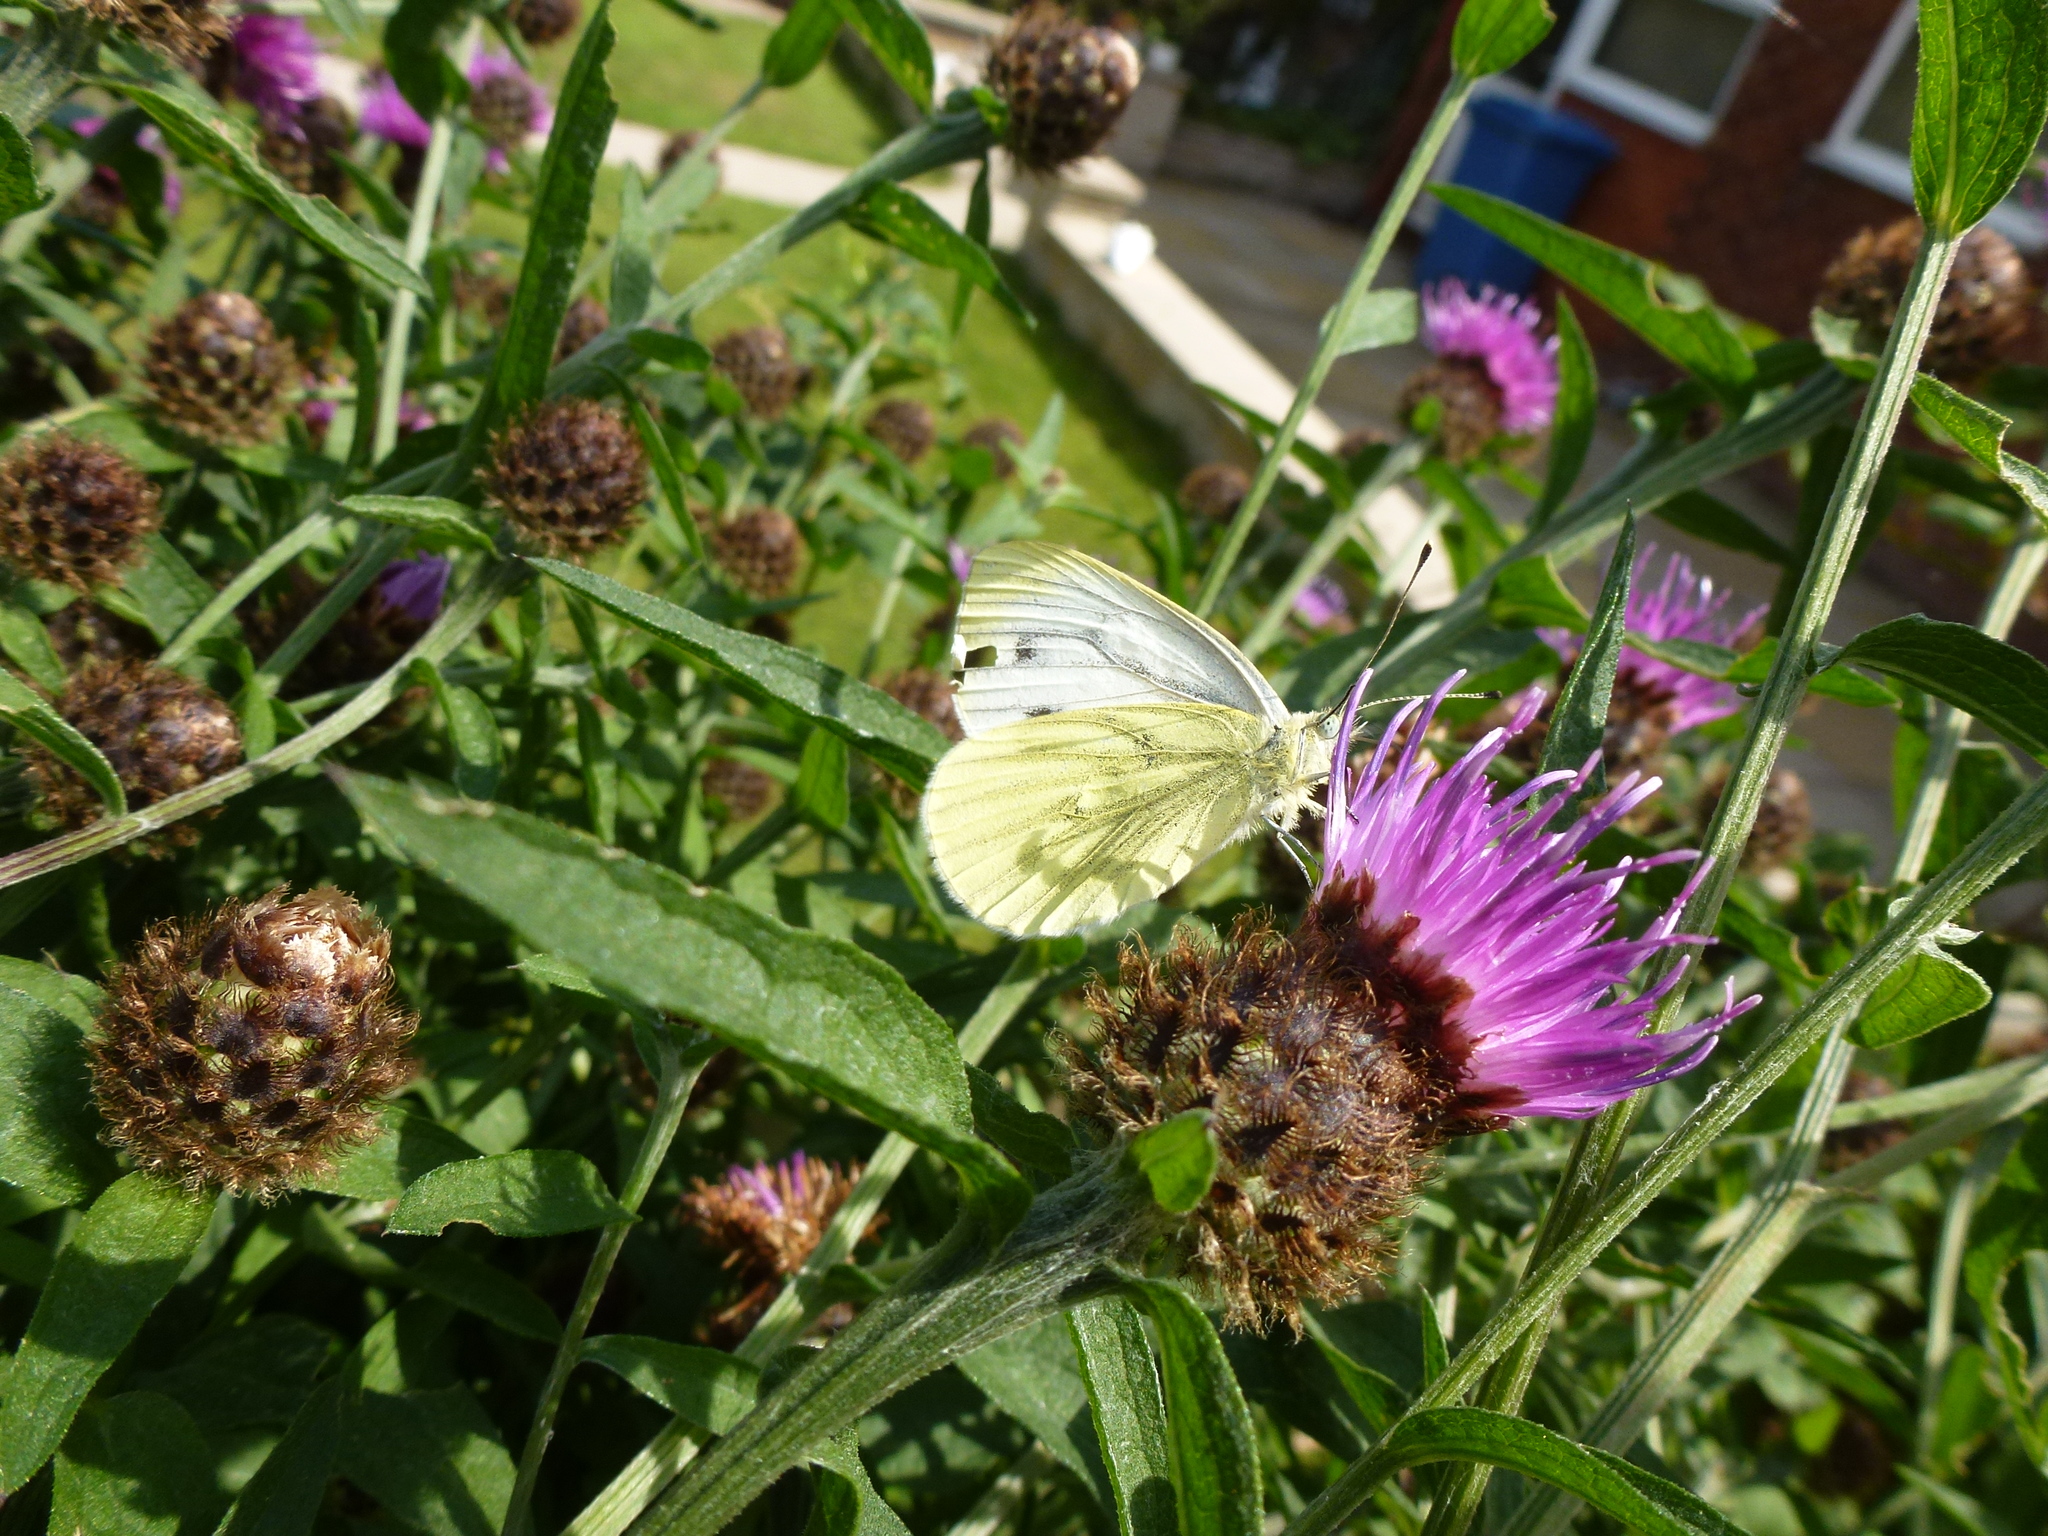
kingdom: Animalia
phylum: Arthropoda
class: Insecta
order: Lepidoptera
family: Pieridae
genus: Pieris
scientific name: Pieris napi
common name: Green-veined white
